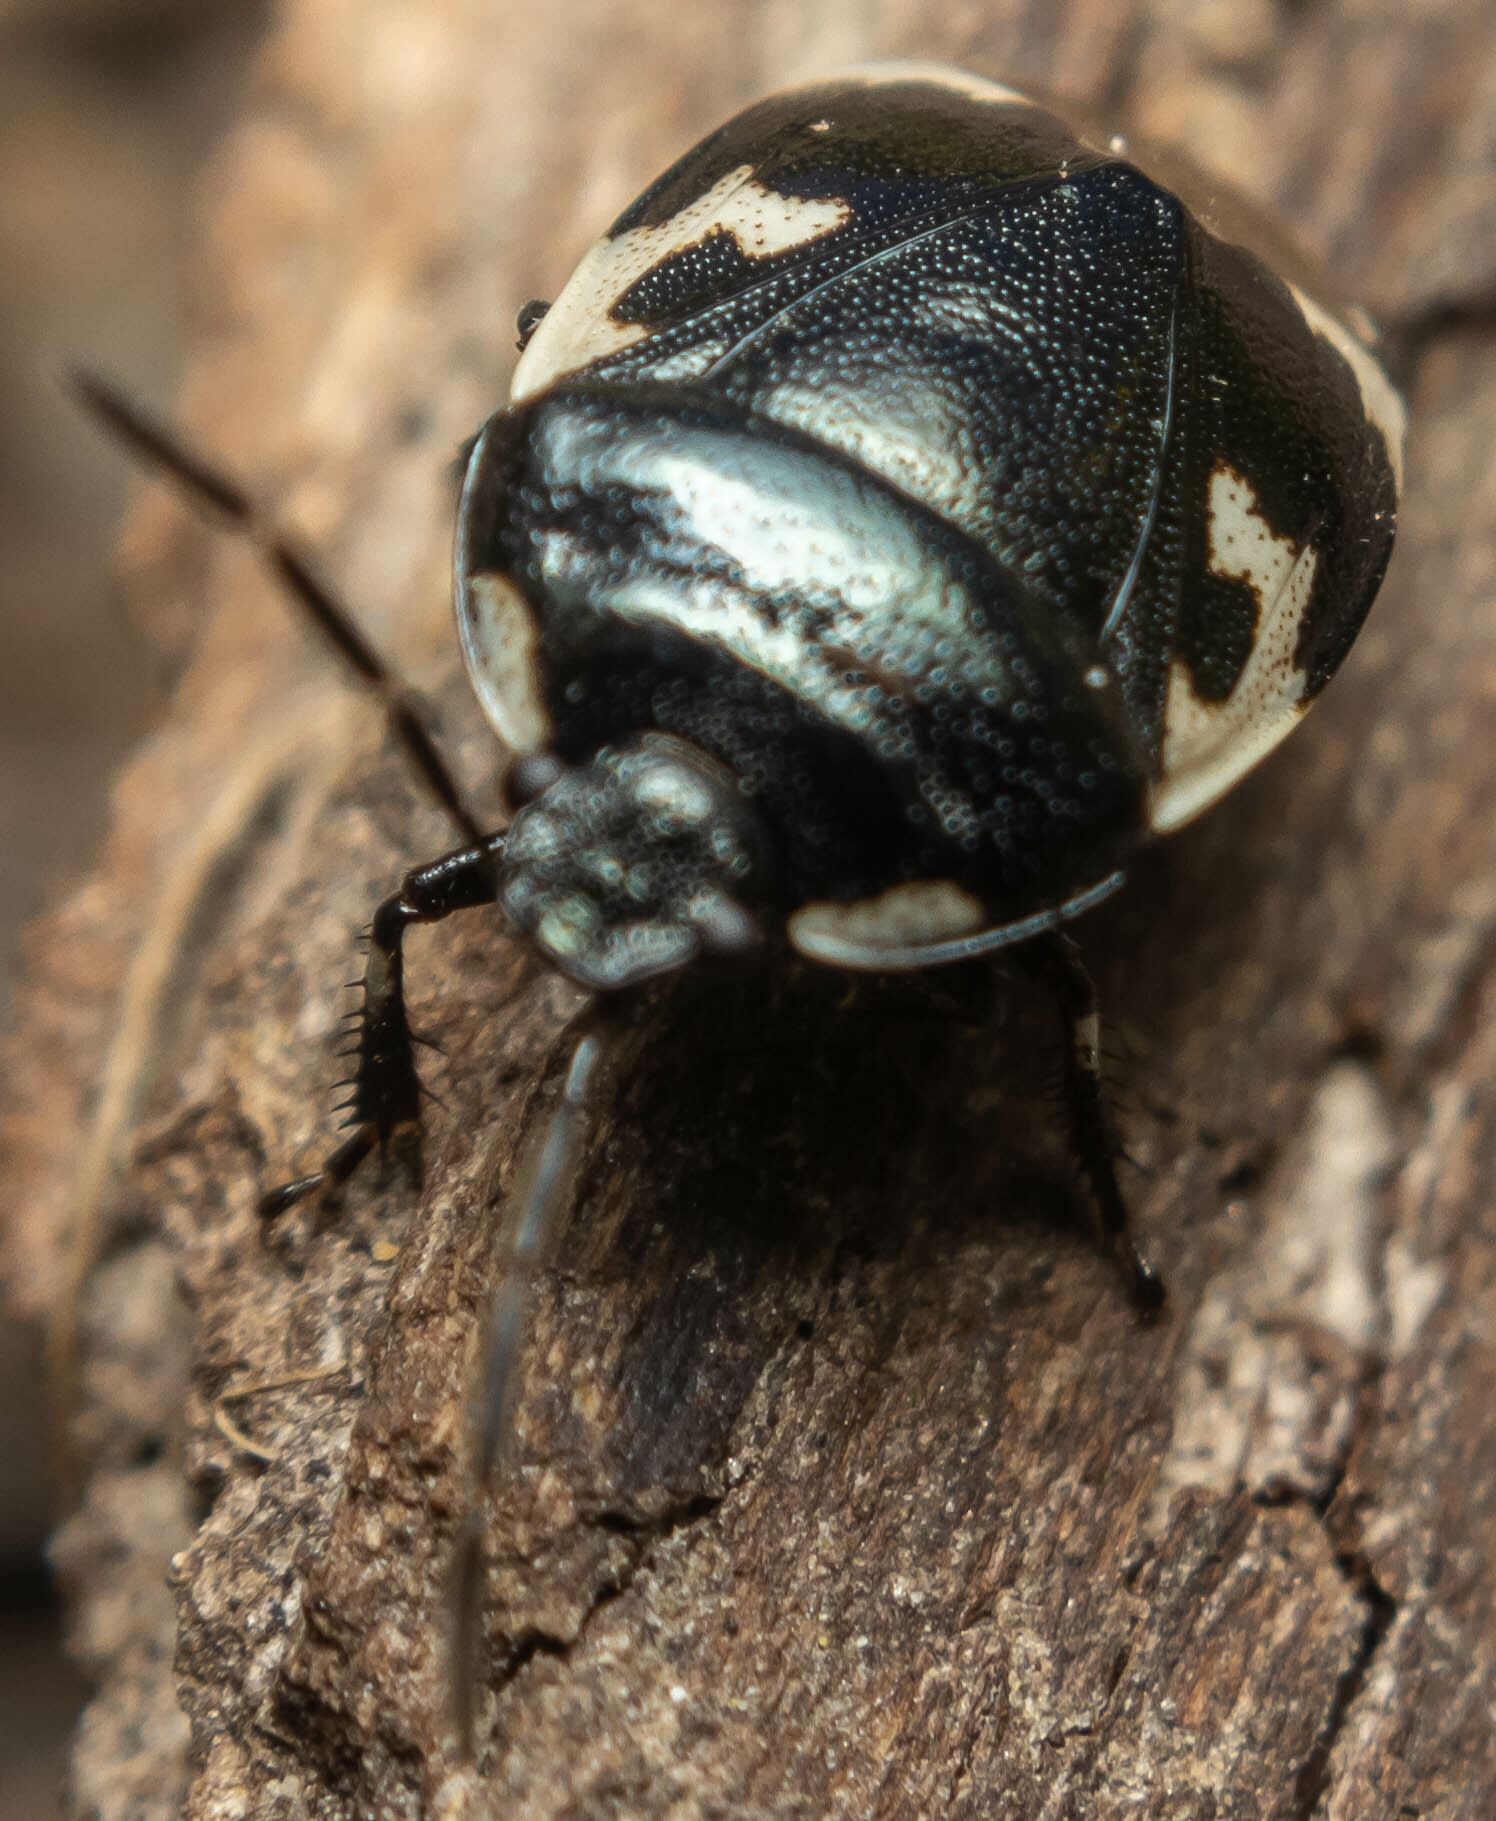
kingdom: Animalia
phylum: Arthropoda
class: Insecta
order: Hemiptera
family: Cydnidae
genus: Tritomegas
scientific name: Tritomegas bicolor
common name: Pied shieldbug
